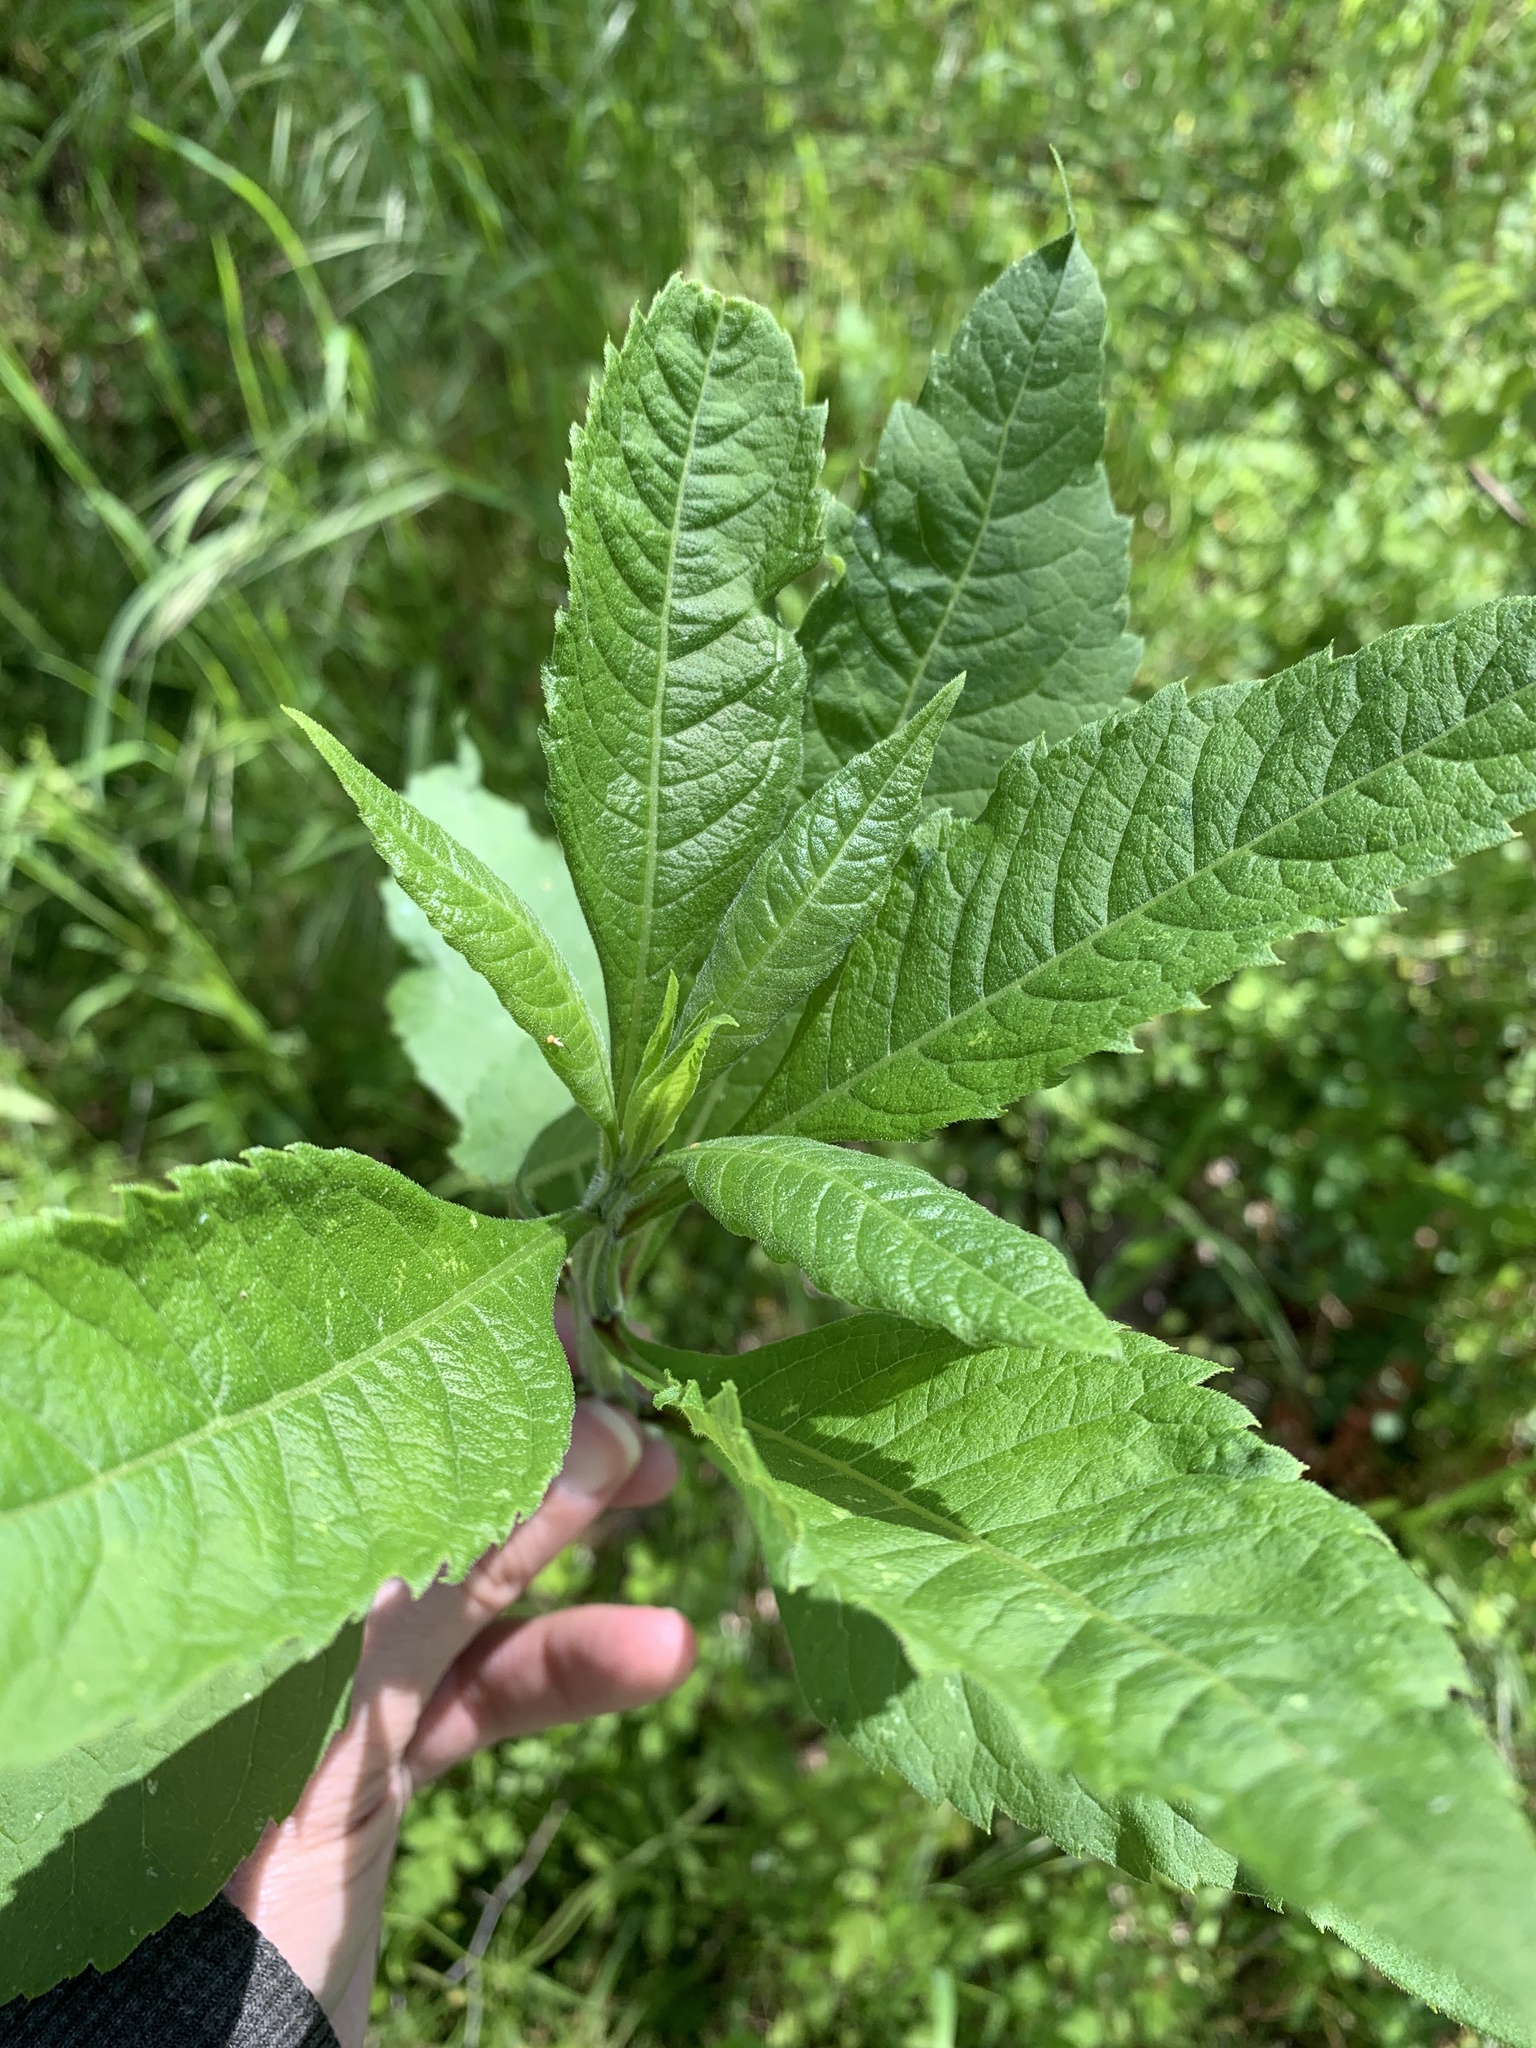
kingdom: Plantae
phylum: Tracheophyta
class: Magnoliopsida
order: Asterales
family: Asteraceae
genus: Verbesina
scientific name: Verbesina alternifolia
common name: Wingstem
